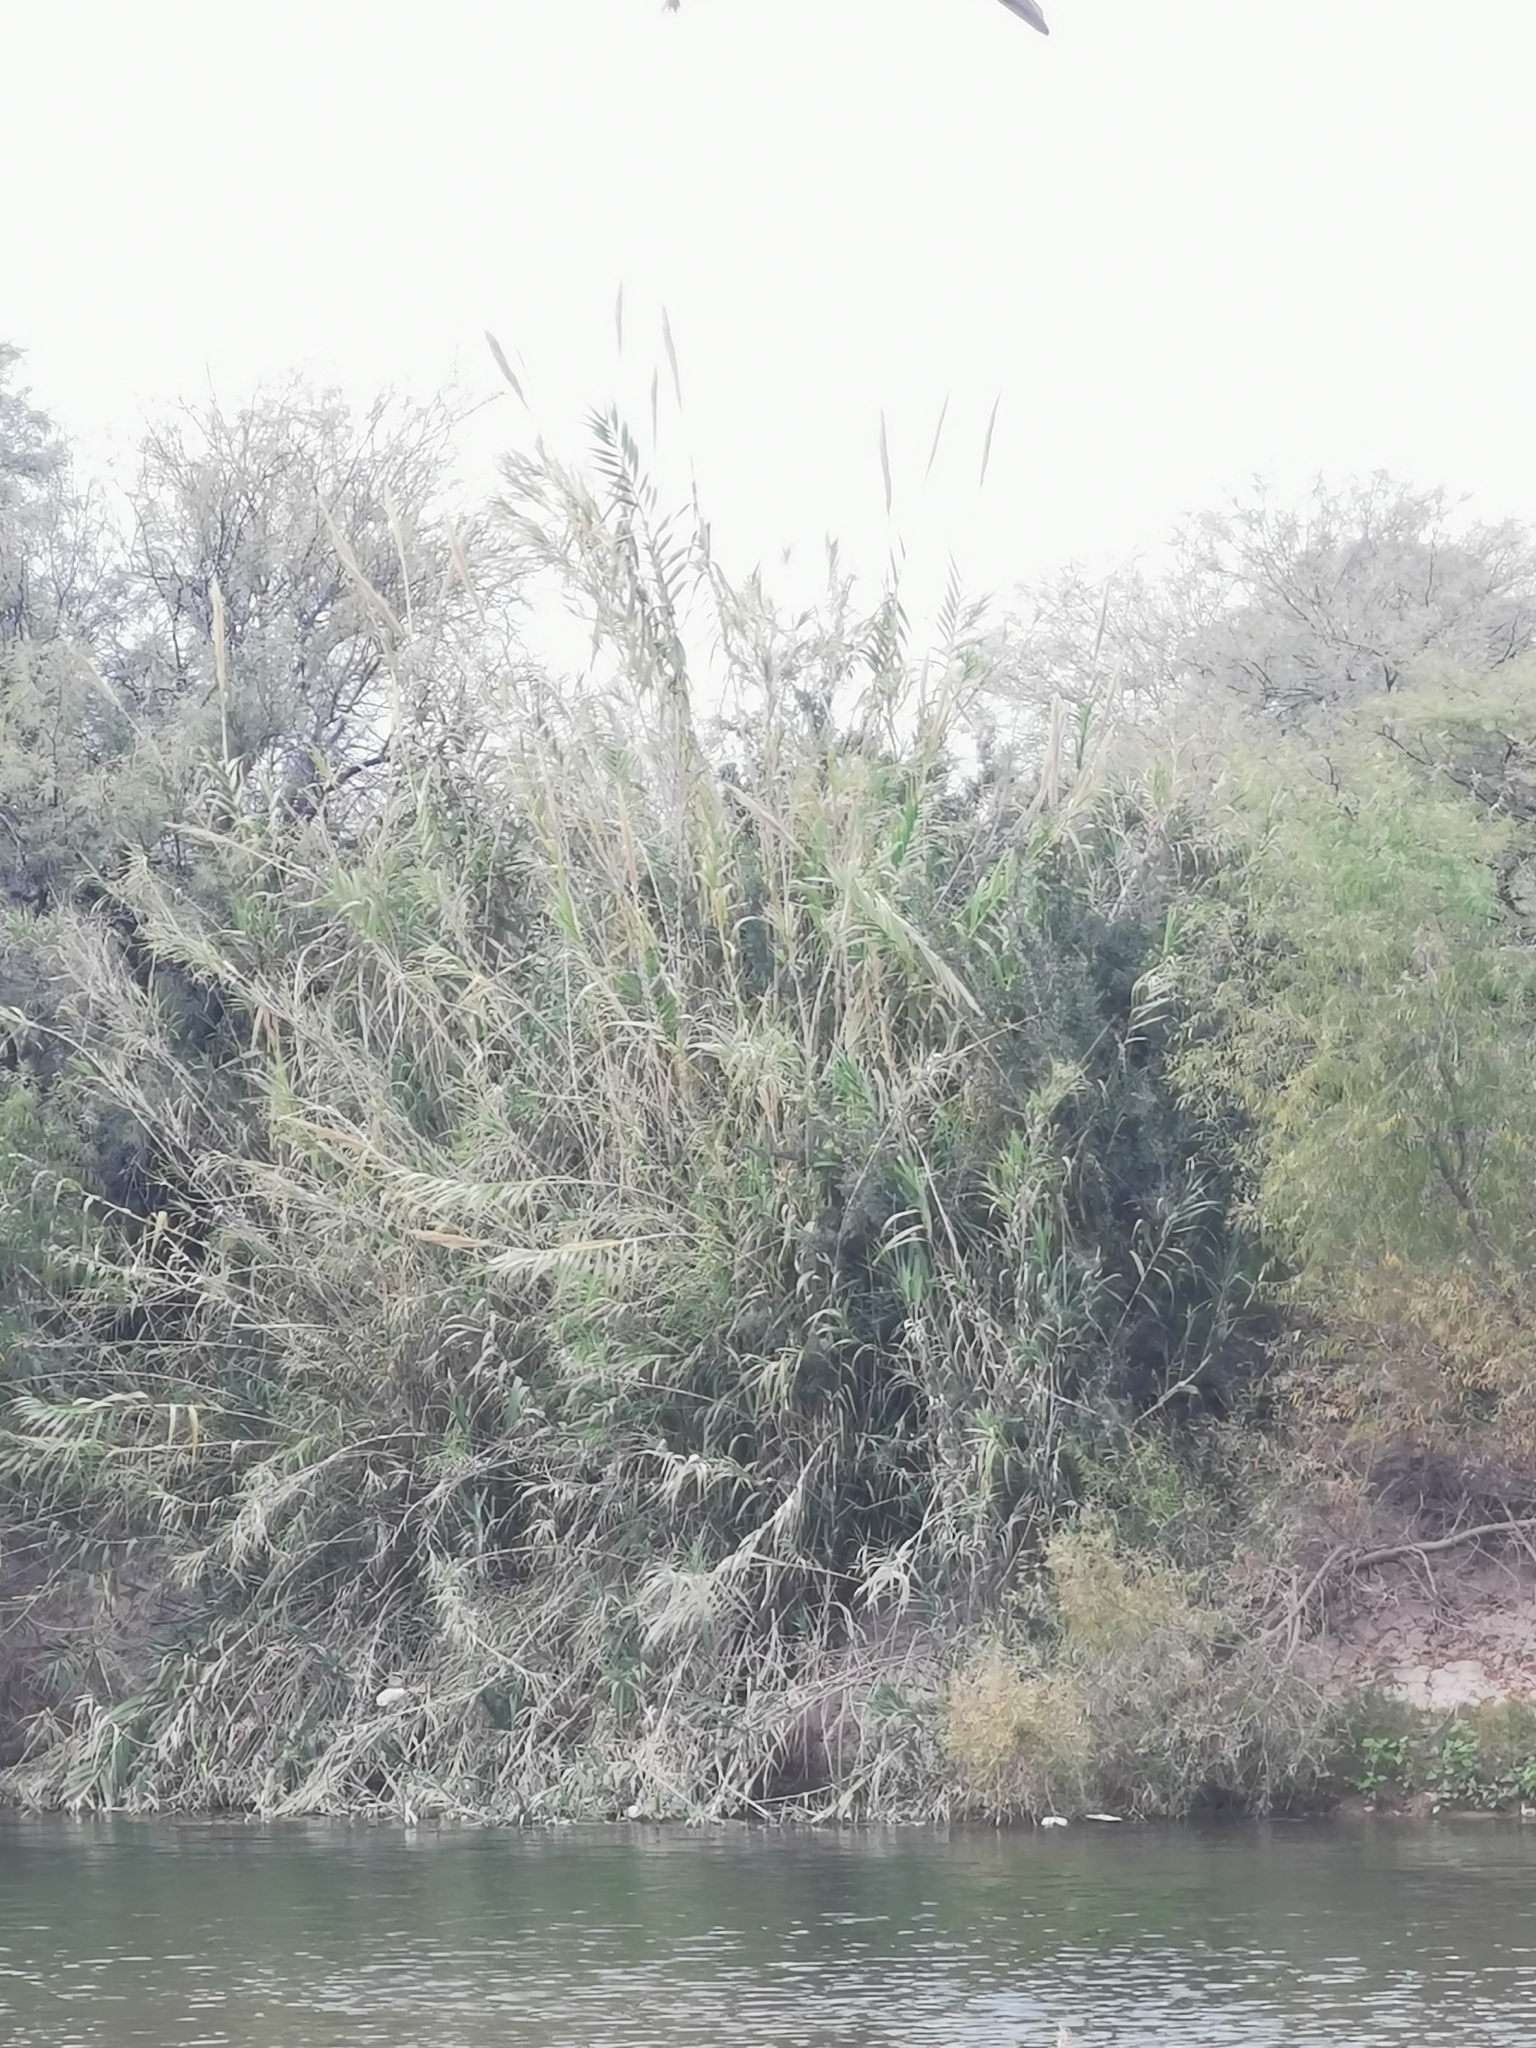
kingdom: Plantae
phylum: Tracheophyta
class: Liliopsida
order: Poales
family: Poaceae
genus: Arundo
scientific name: Arundo donax
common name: Giant reed
